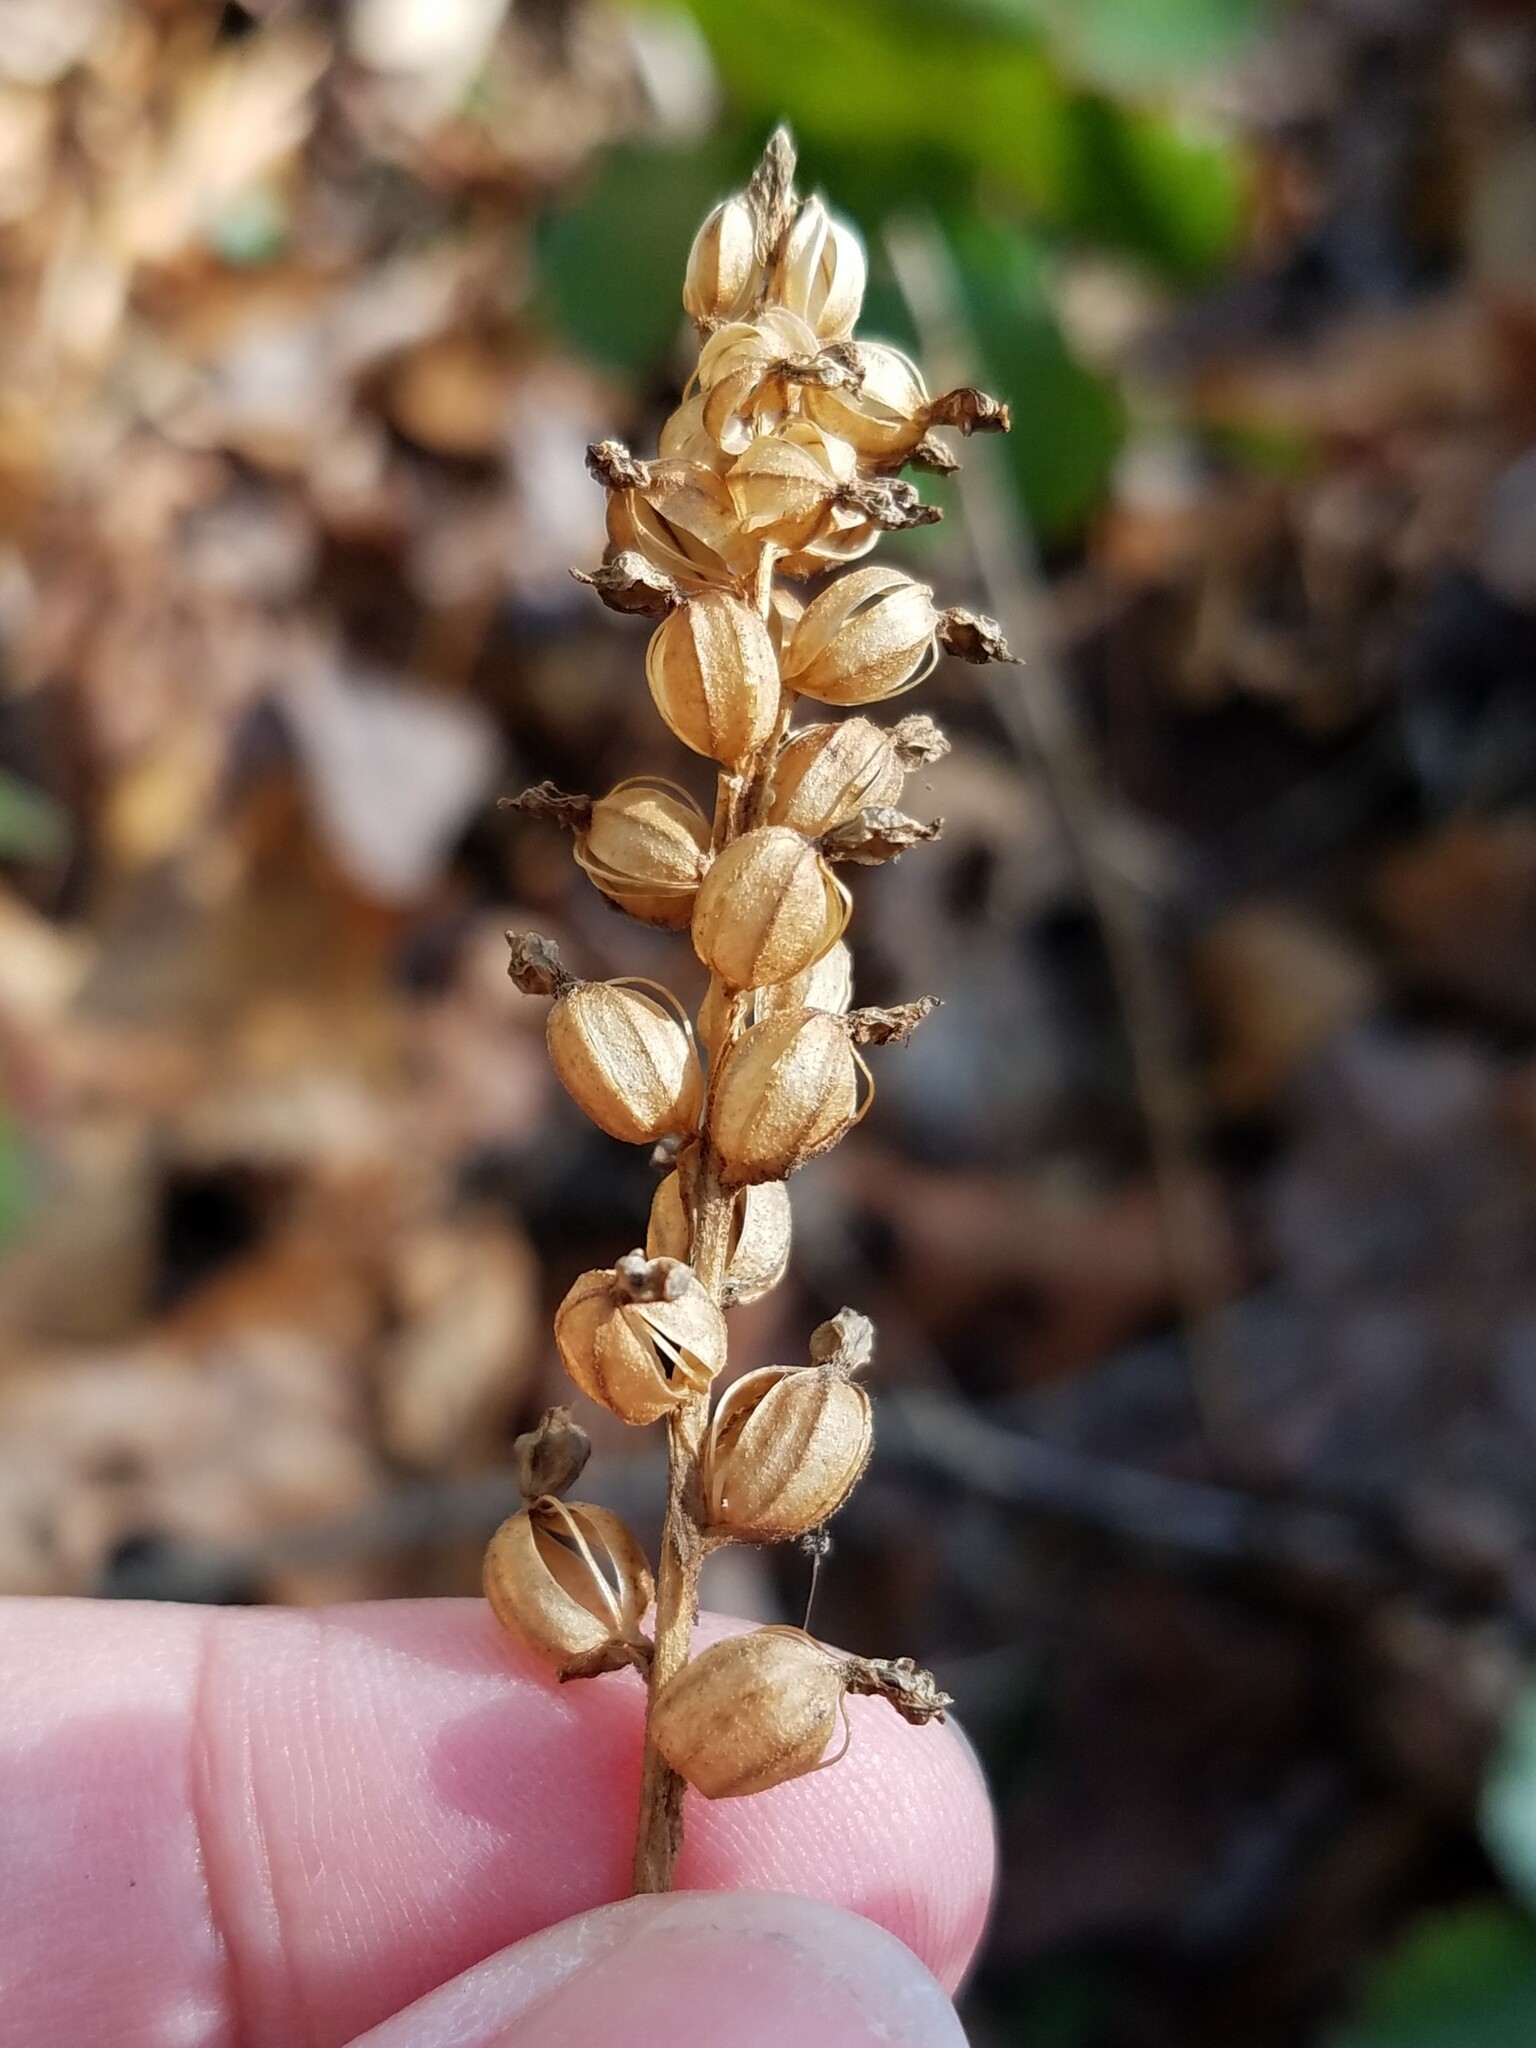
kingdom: Plantae
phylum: Tracheophyta
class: Liliopsida
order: Asparagales
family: Orchidaceae
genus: Goodyera
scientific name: Goodyera pubescens
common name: Downy rattlesnake-plantain
